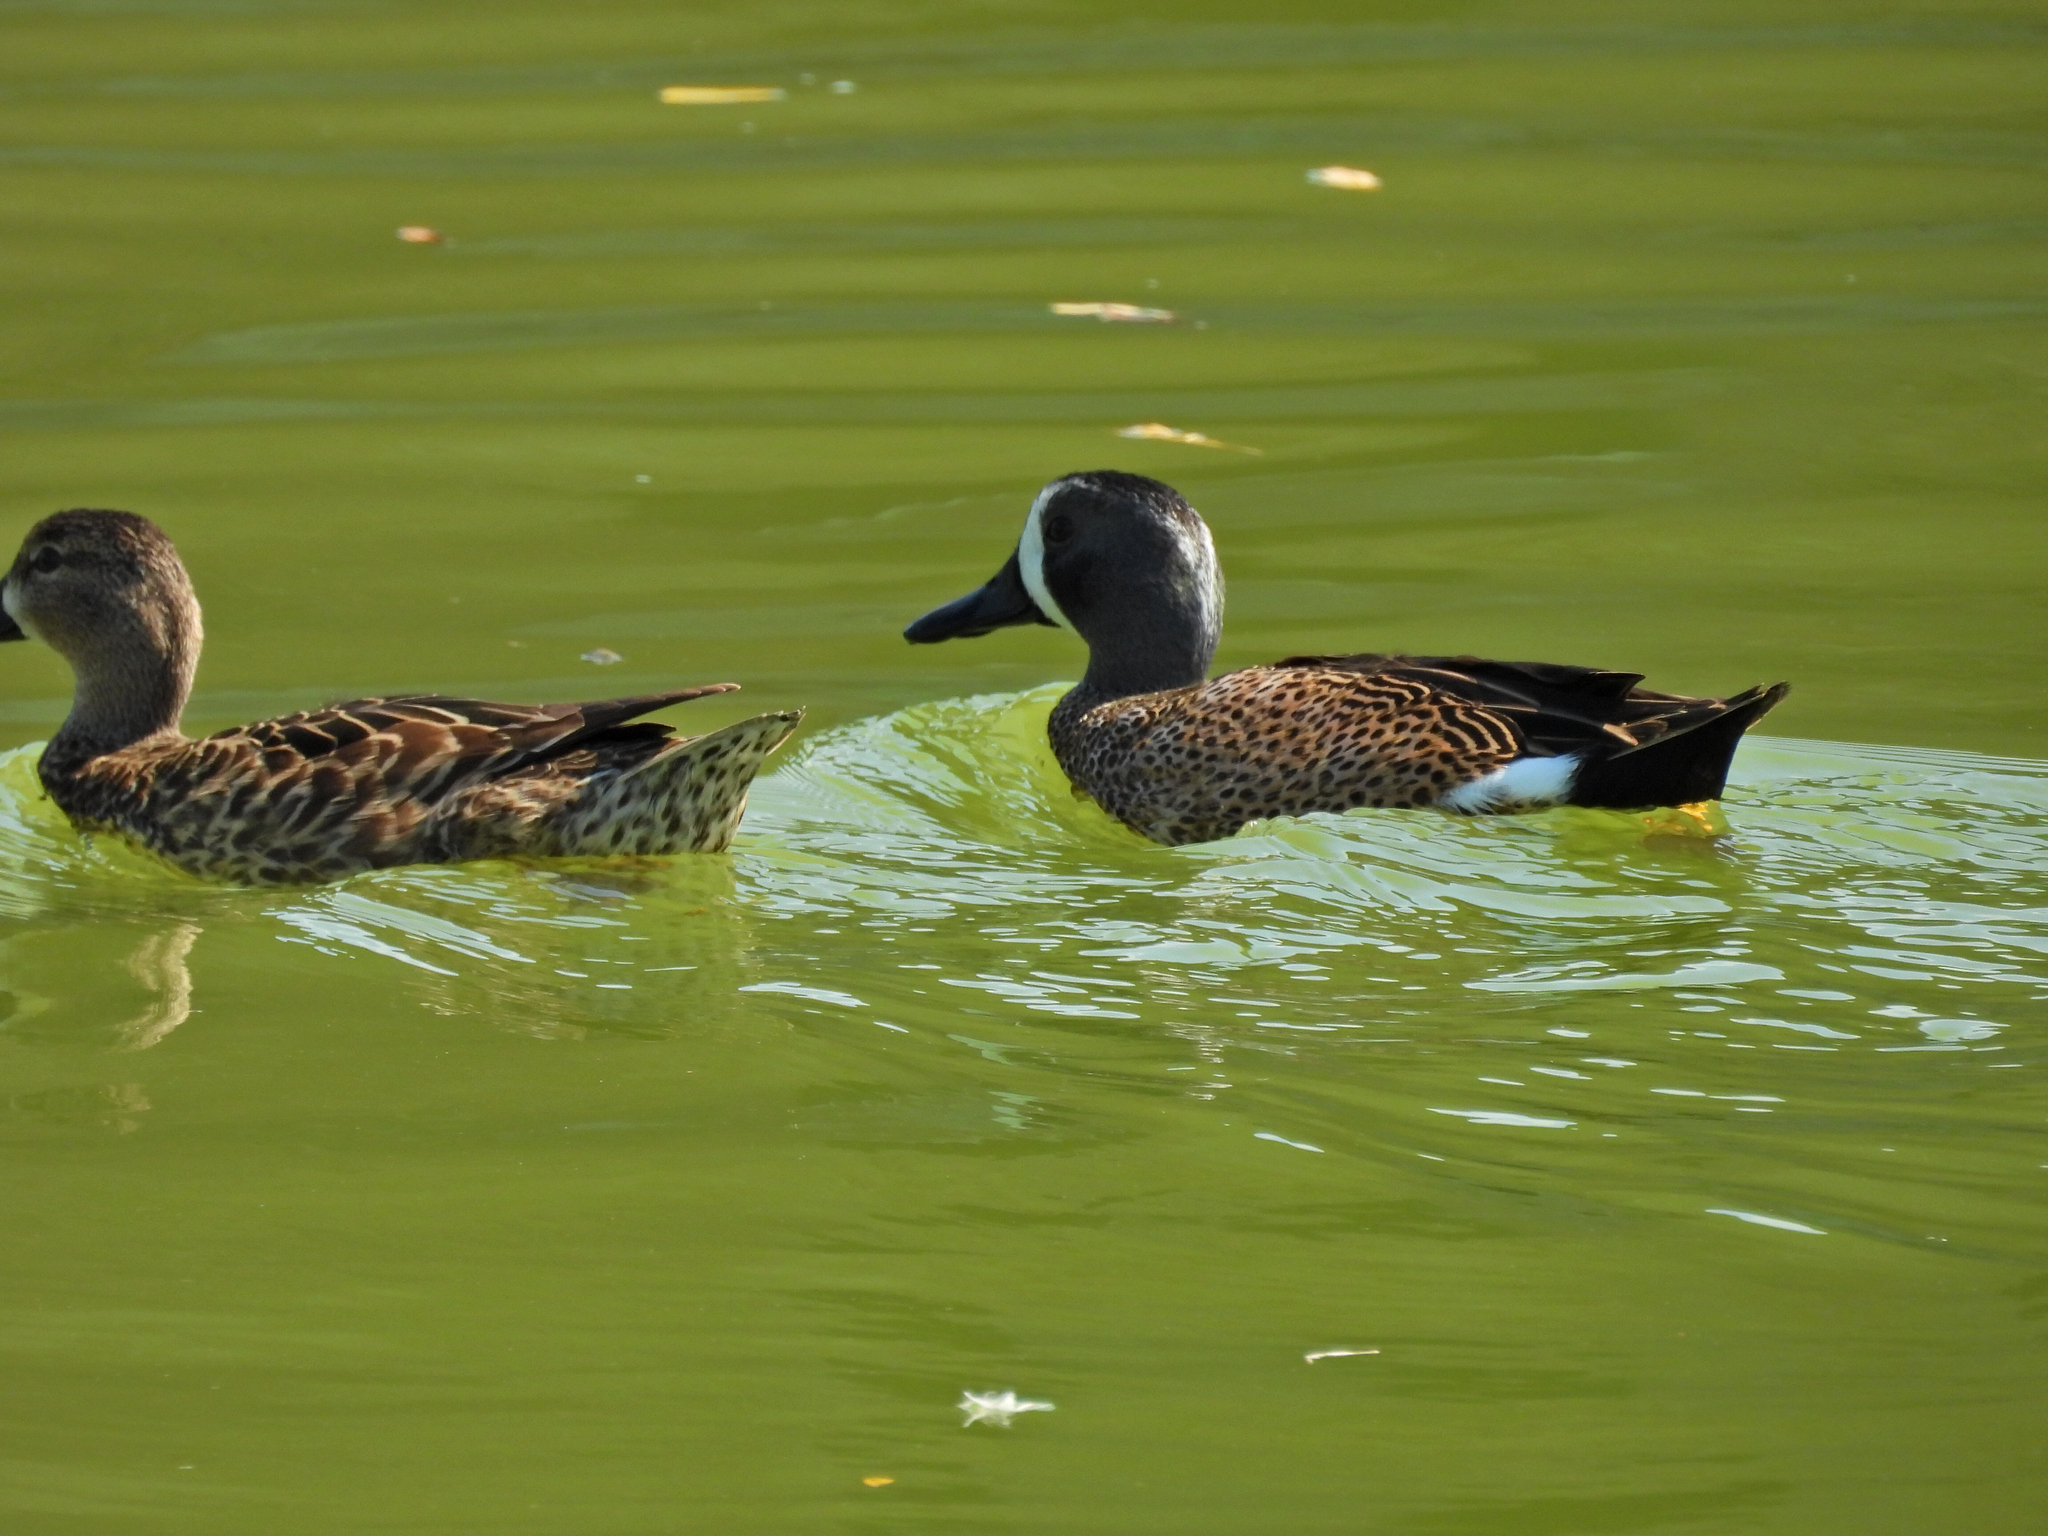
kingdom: Animalia
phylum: Chordata
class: Aves
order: Anseriformes
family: Anatidae
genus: Spatula
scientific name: Spatula discors
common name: Blue-winged teal
